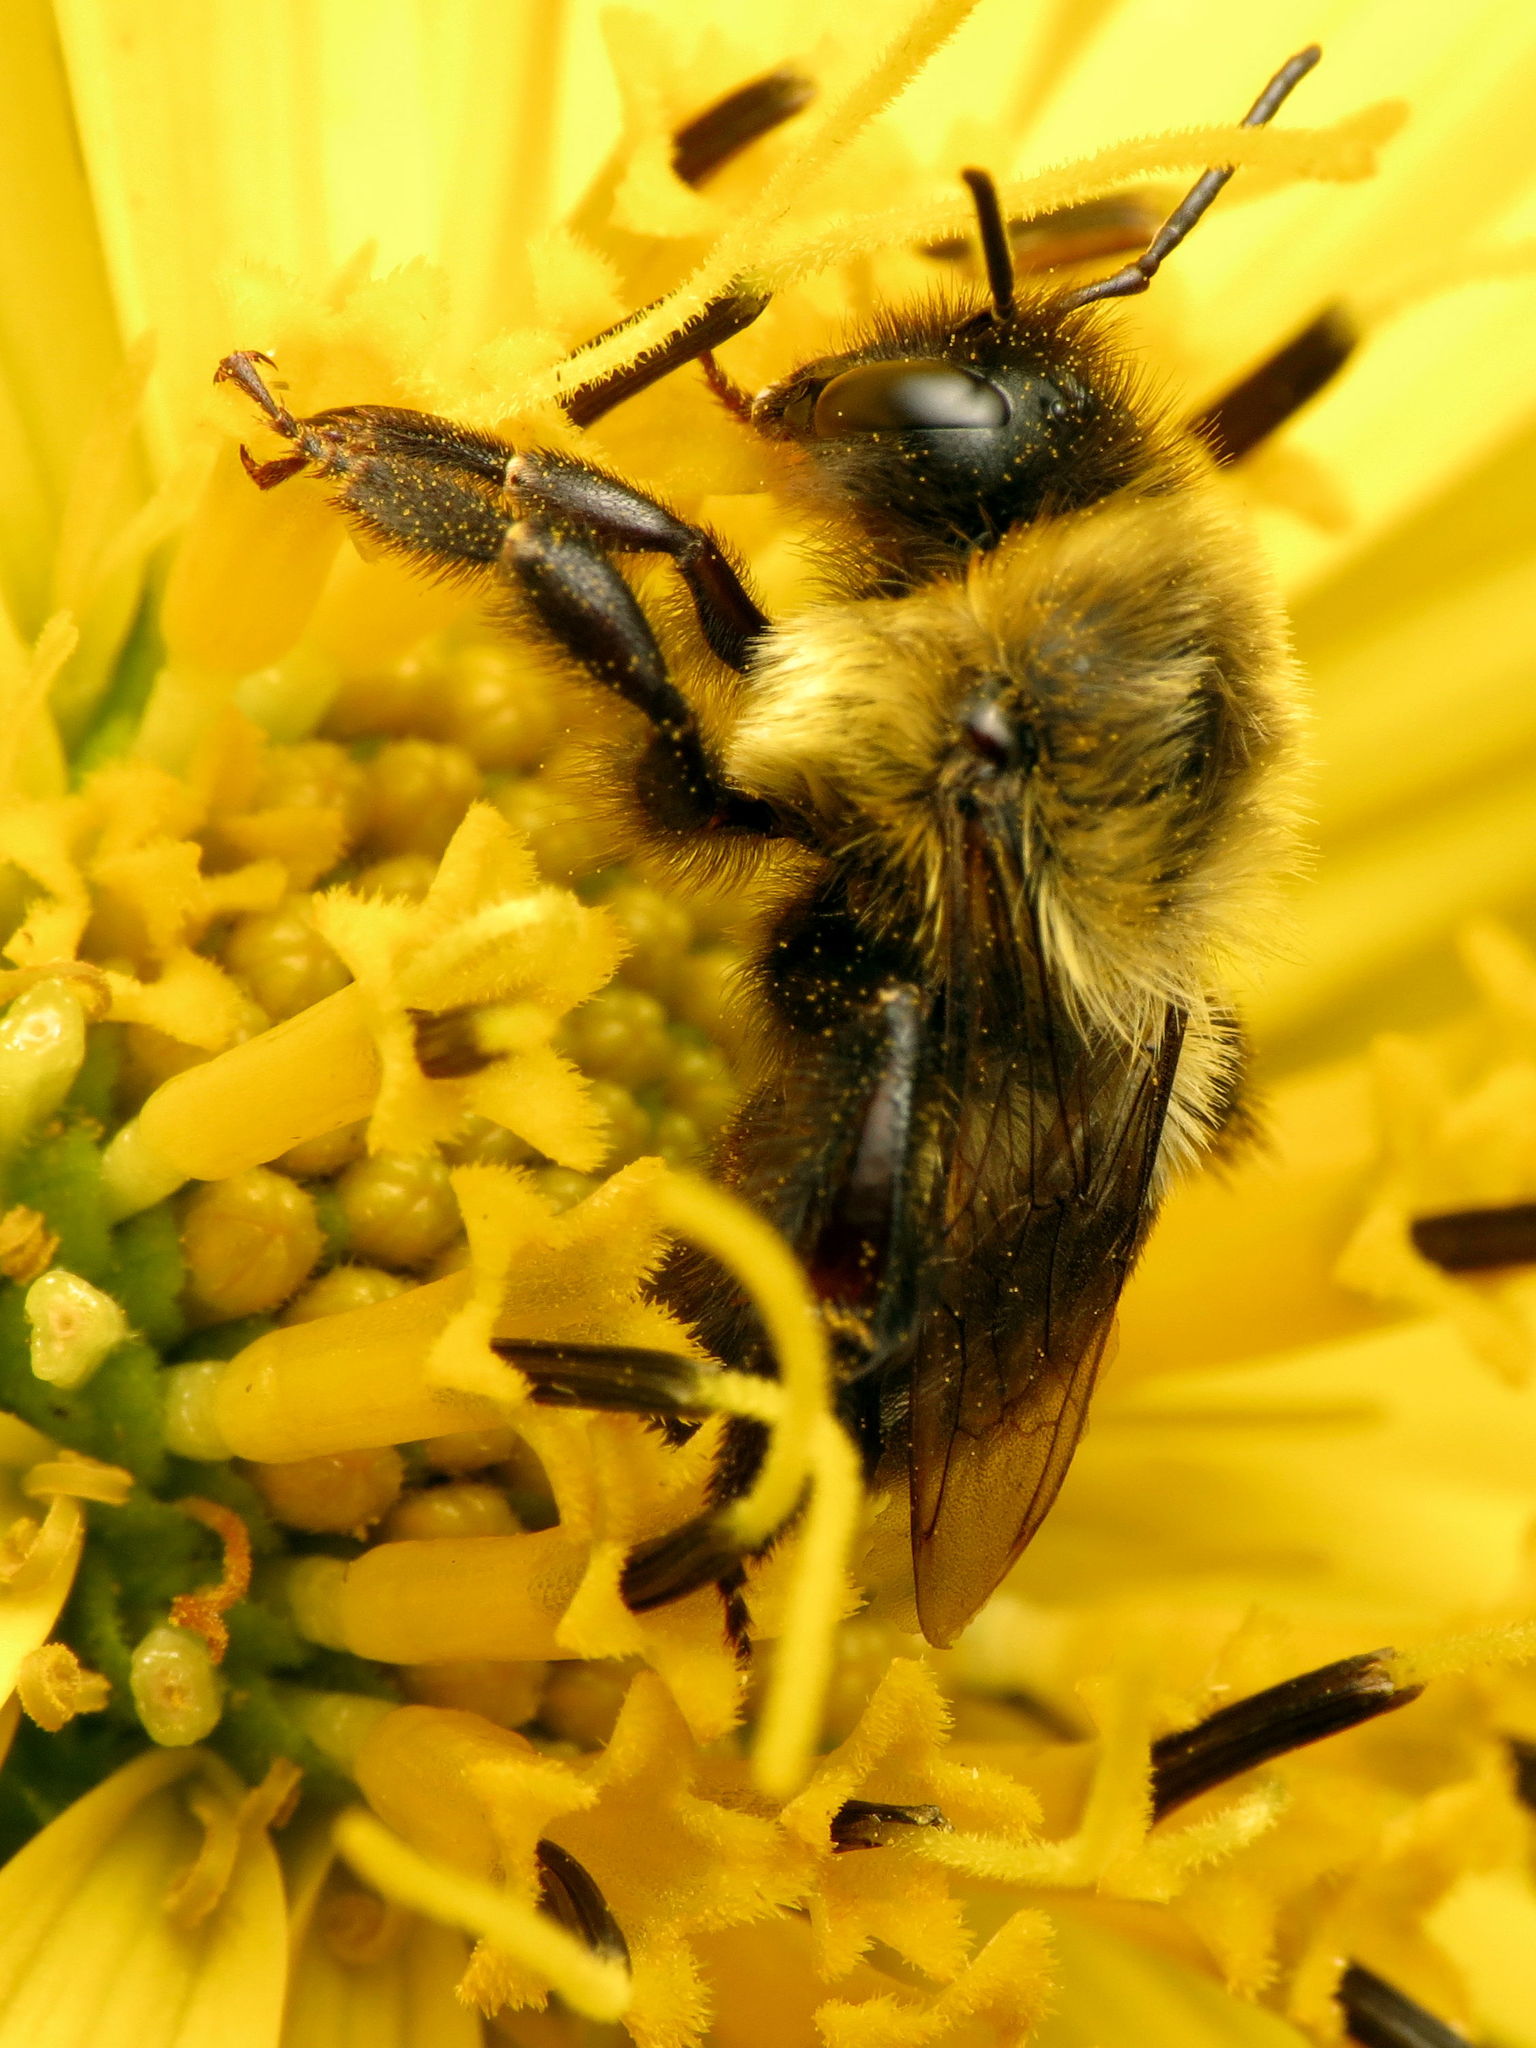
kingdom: Animalia
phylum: Arthropoda
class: Insecta
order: Hymenoptera
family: Apidae
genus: Bombus
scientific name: Bombus impatiens
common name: Common eastern bumble bee
